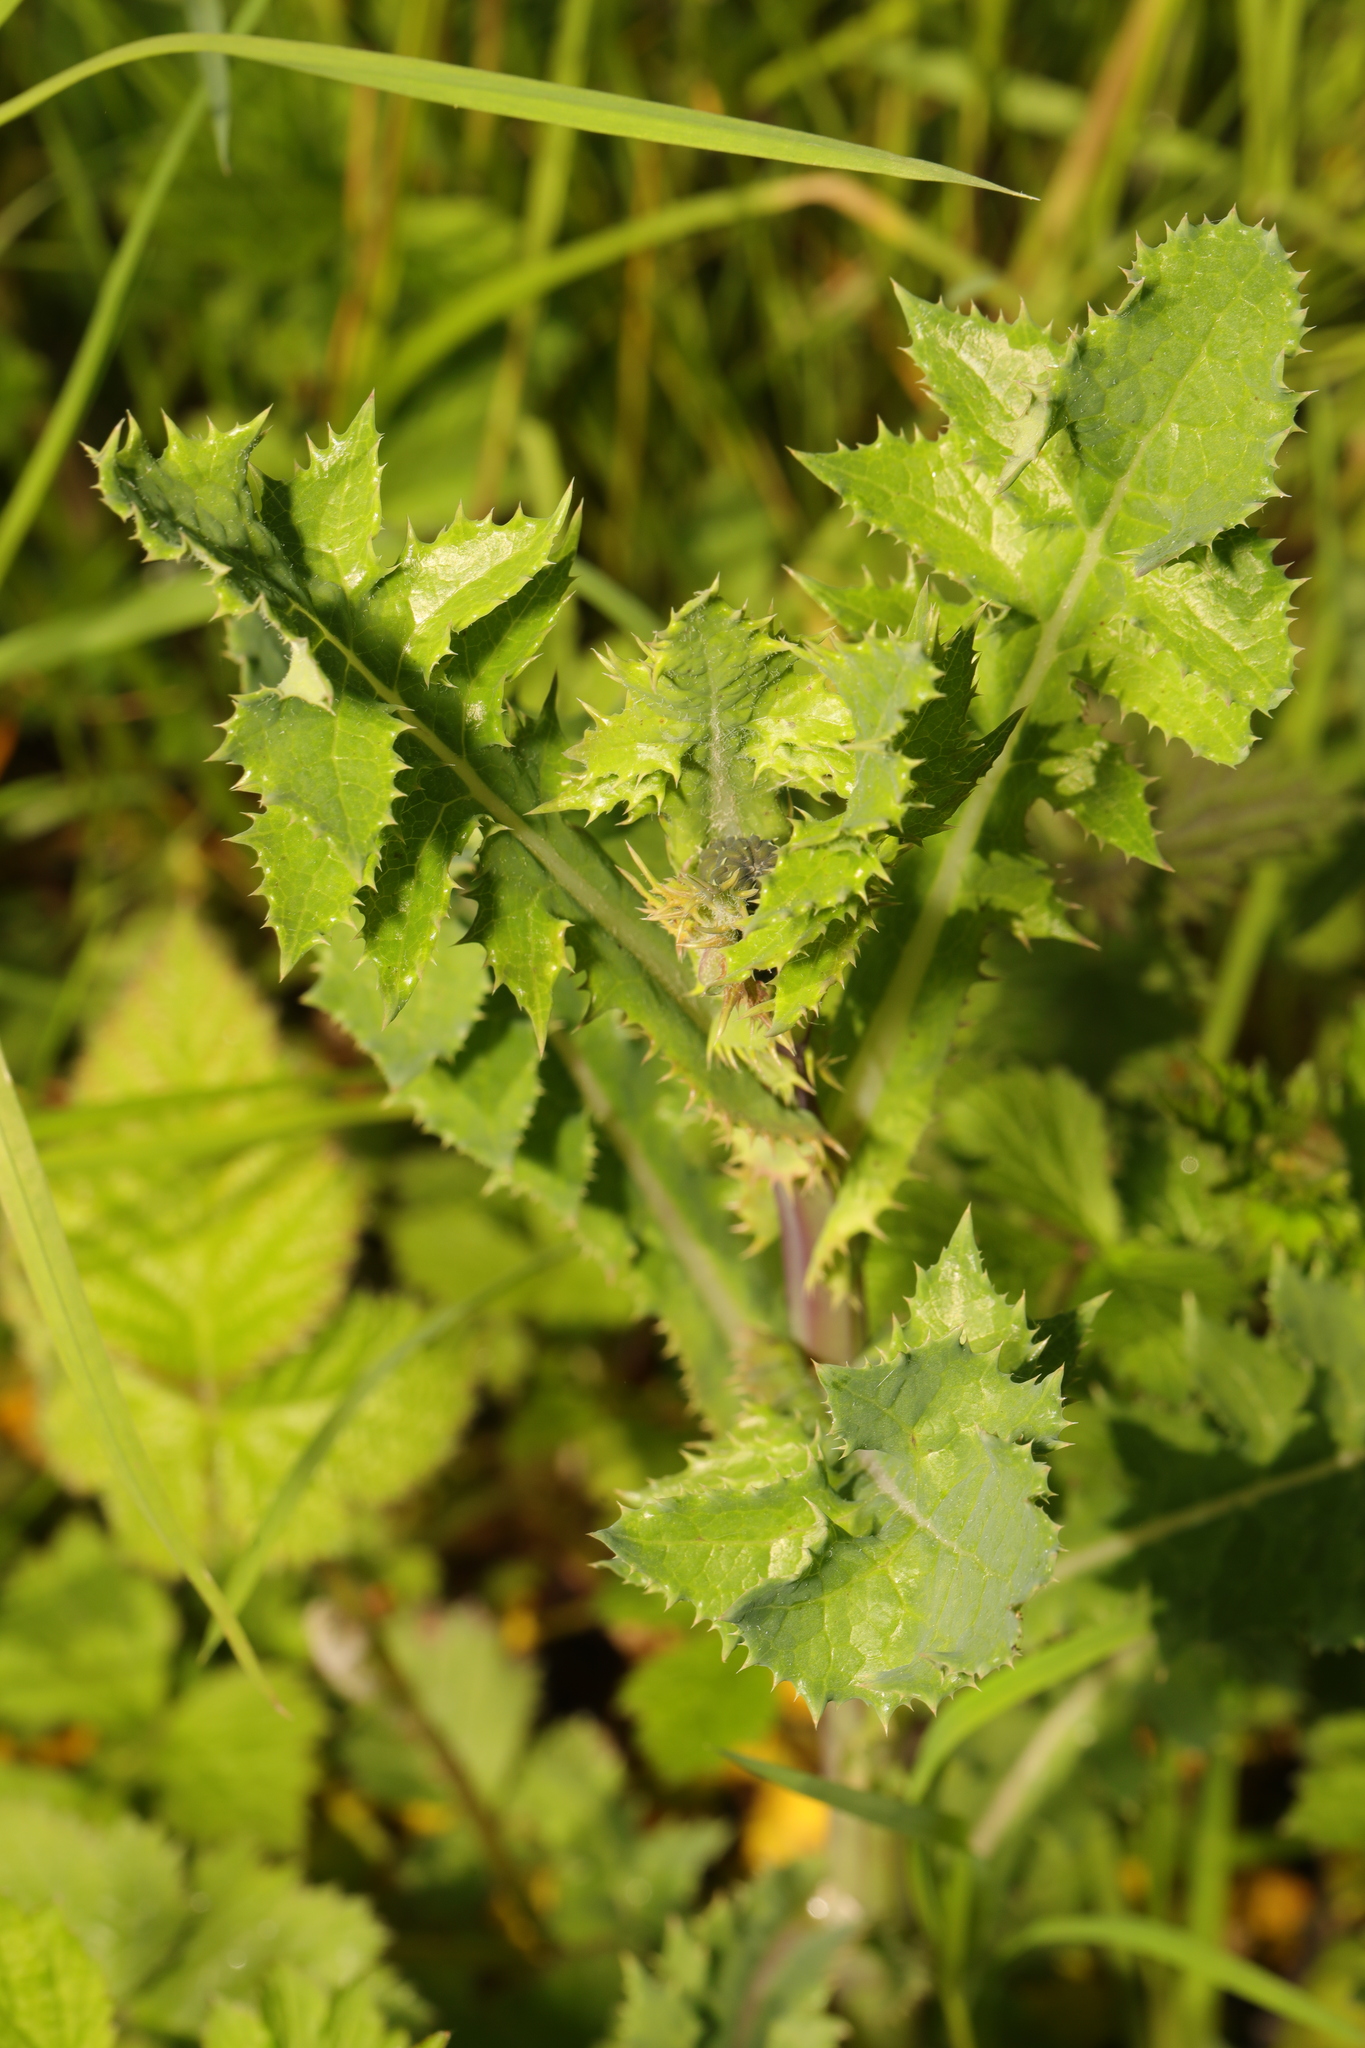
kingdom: Plantae
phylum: Tracheophyta
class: Magnoliopsida
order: Asterales
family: Asteraceae
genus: Sonchus
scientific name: Sonchus asper
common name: Prickly sow-thistle
